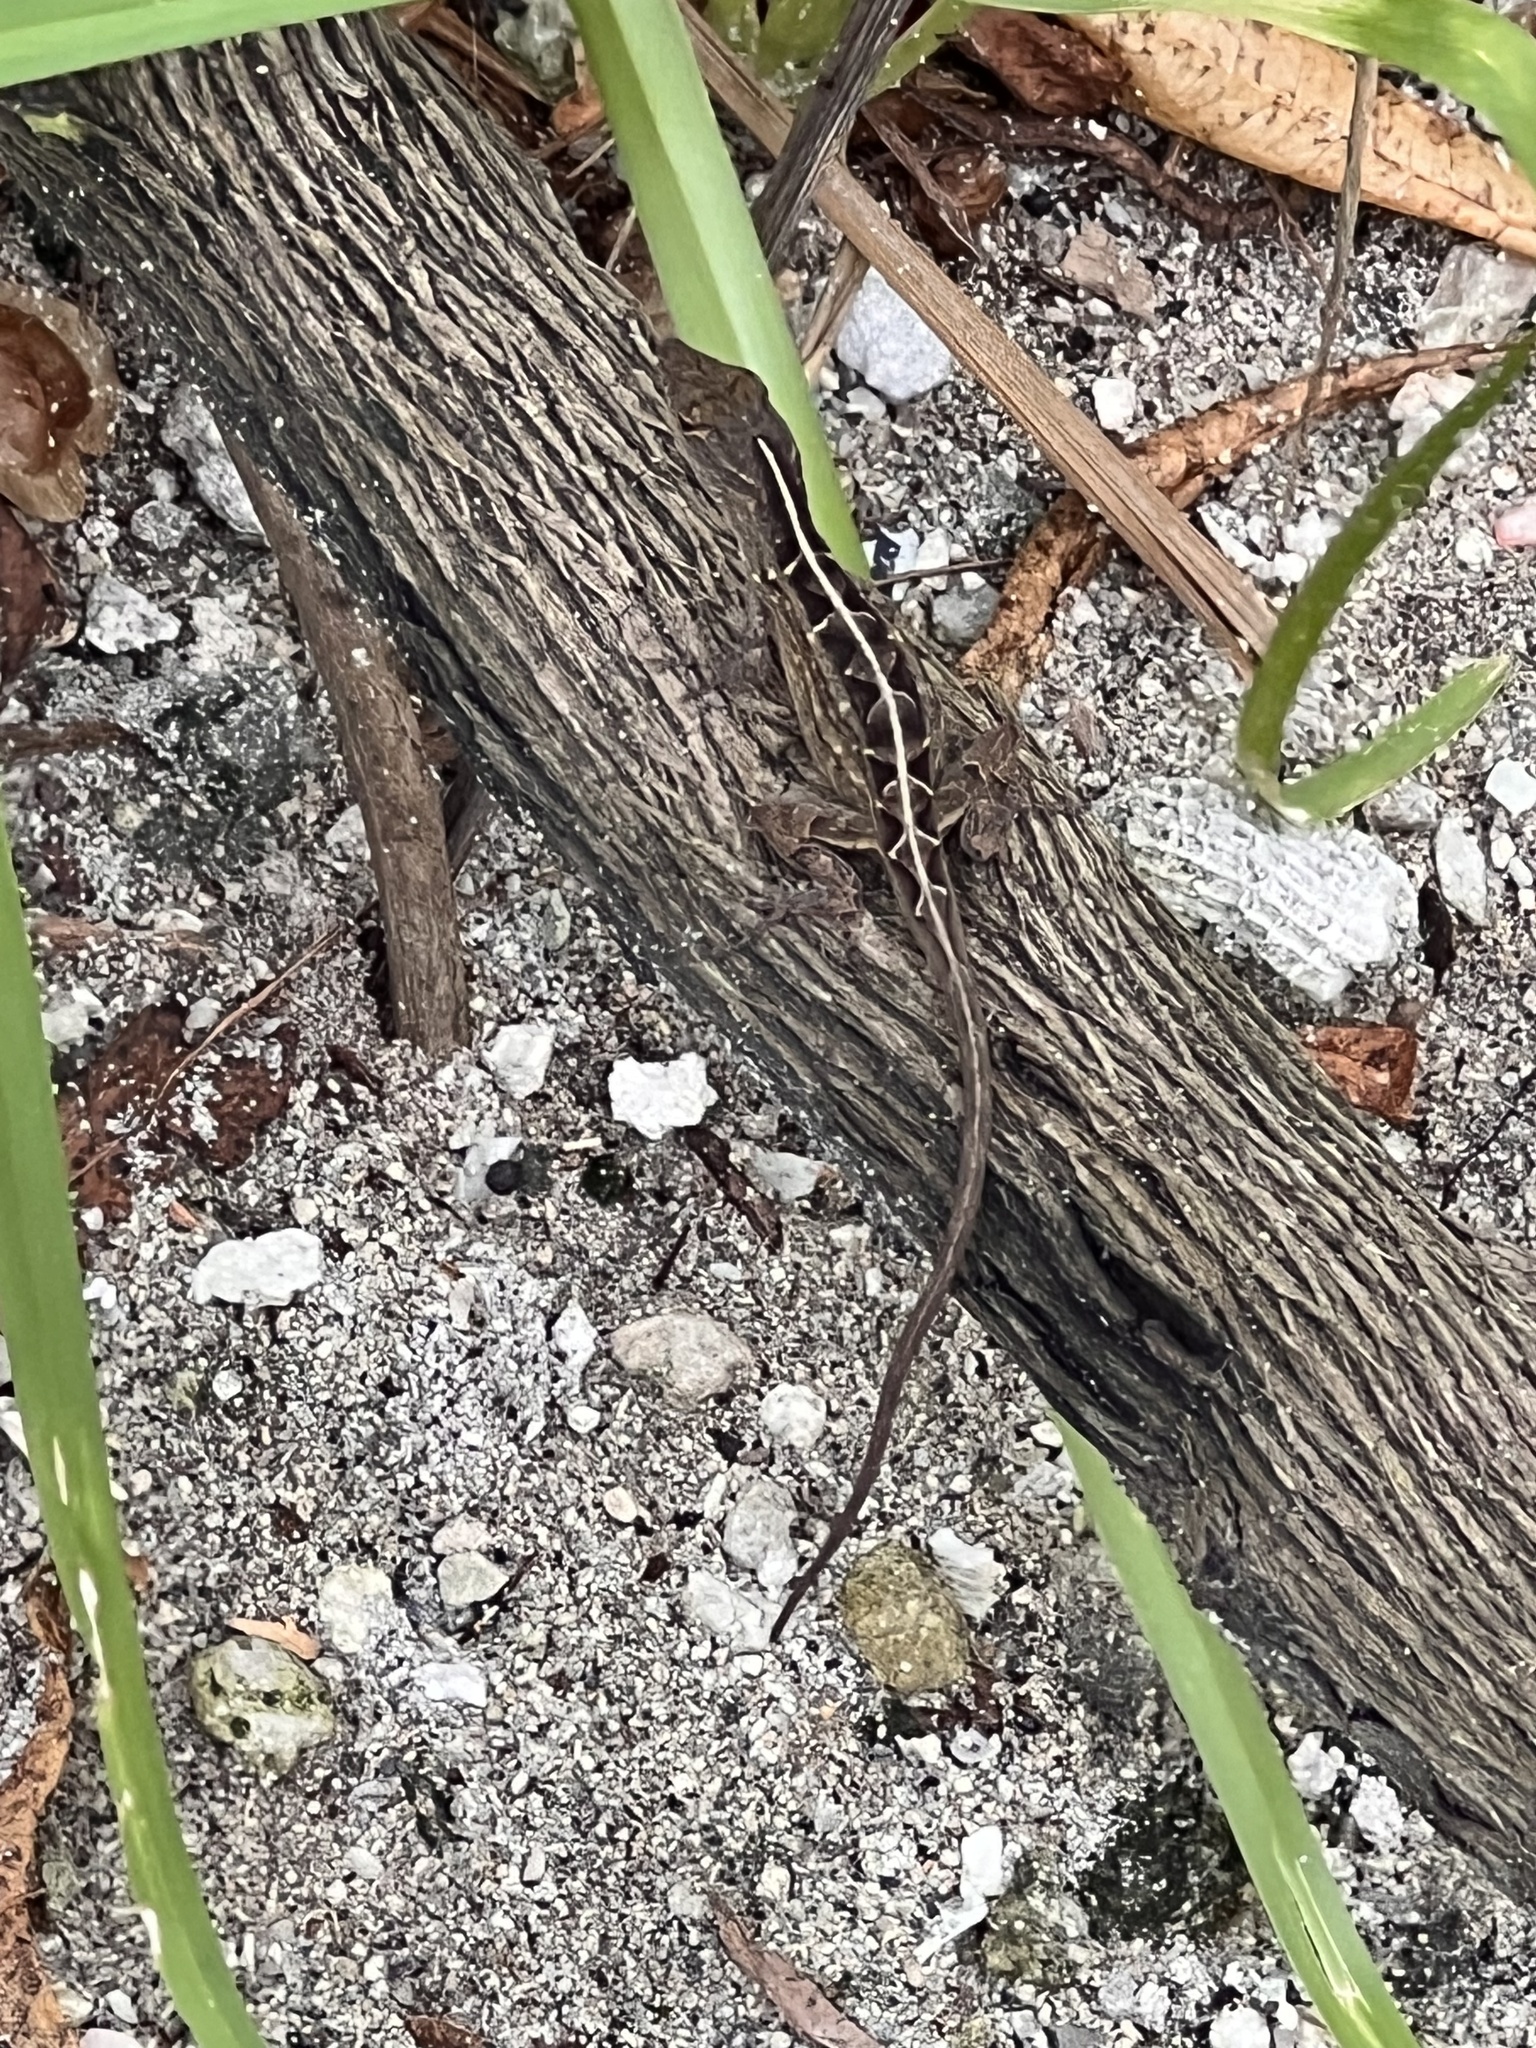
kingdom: Animalia
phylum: Chordata
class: Squamata
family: Dactyloidae
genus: Anolis
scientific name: Anolis sagrei
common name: Brown anole
